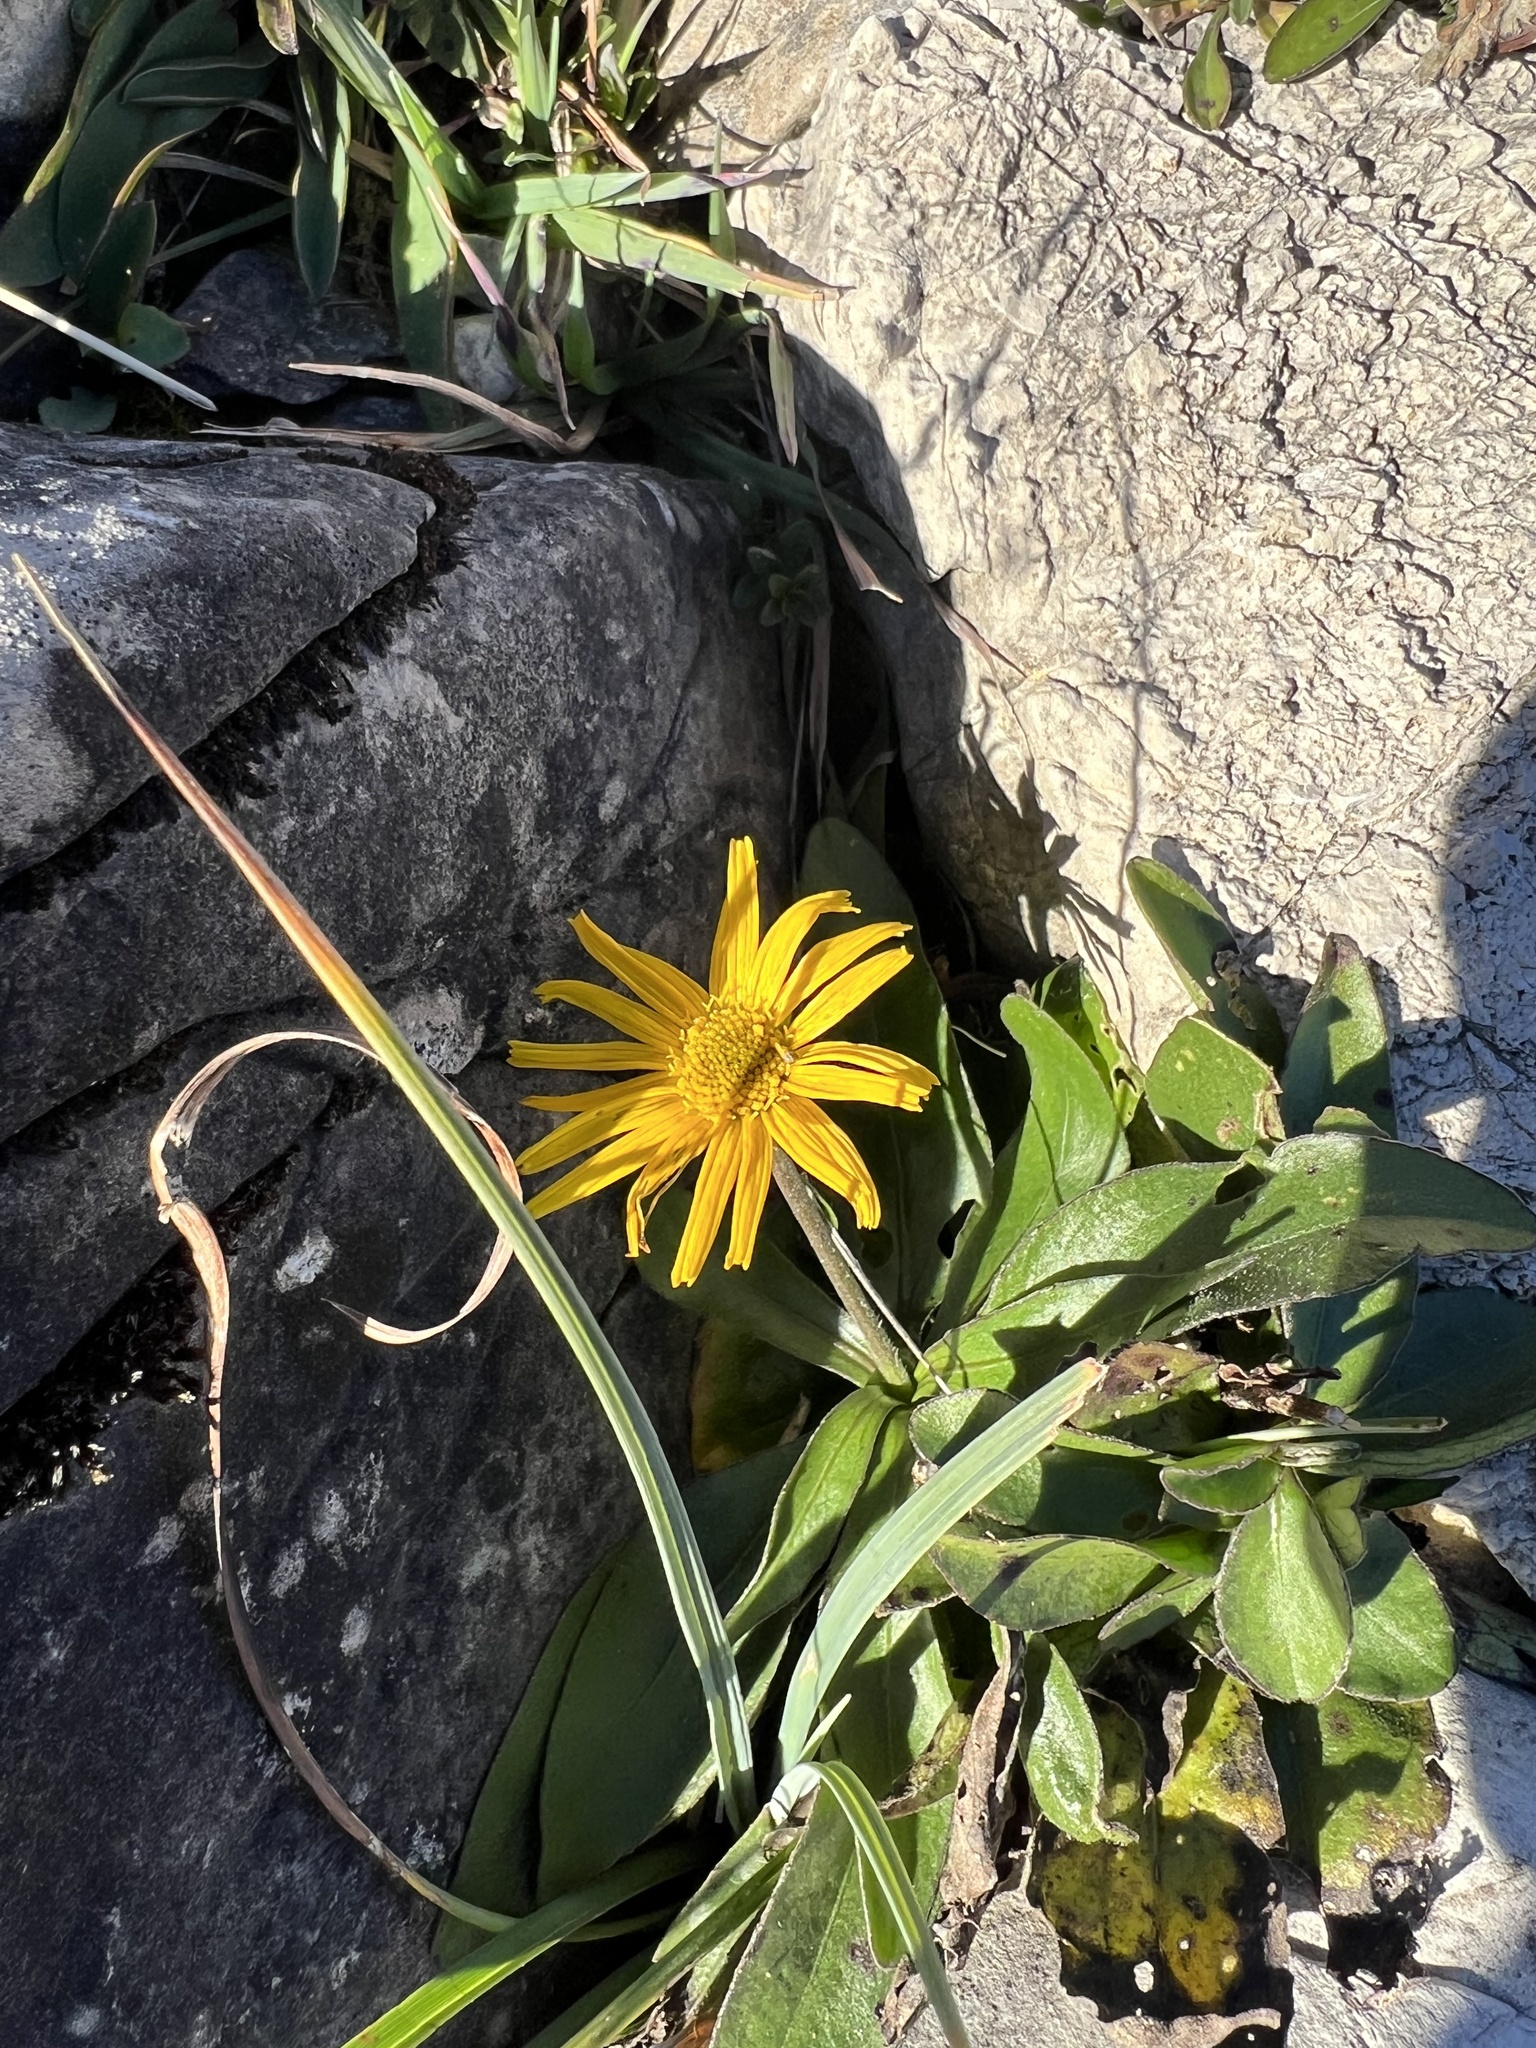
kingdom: Plantae
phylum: Tracheophyta
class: Magnoliopsida
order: Asterales
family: Asteraceae
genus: Arnica
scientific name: Arnica montana
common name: Leopard's bane
